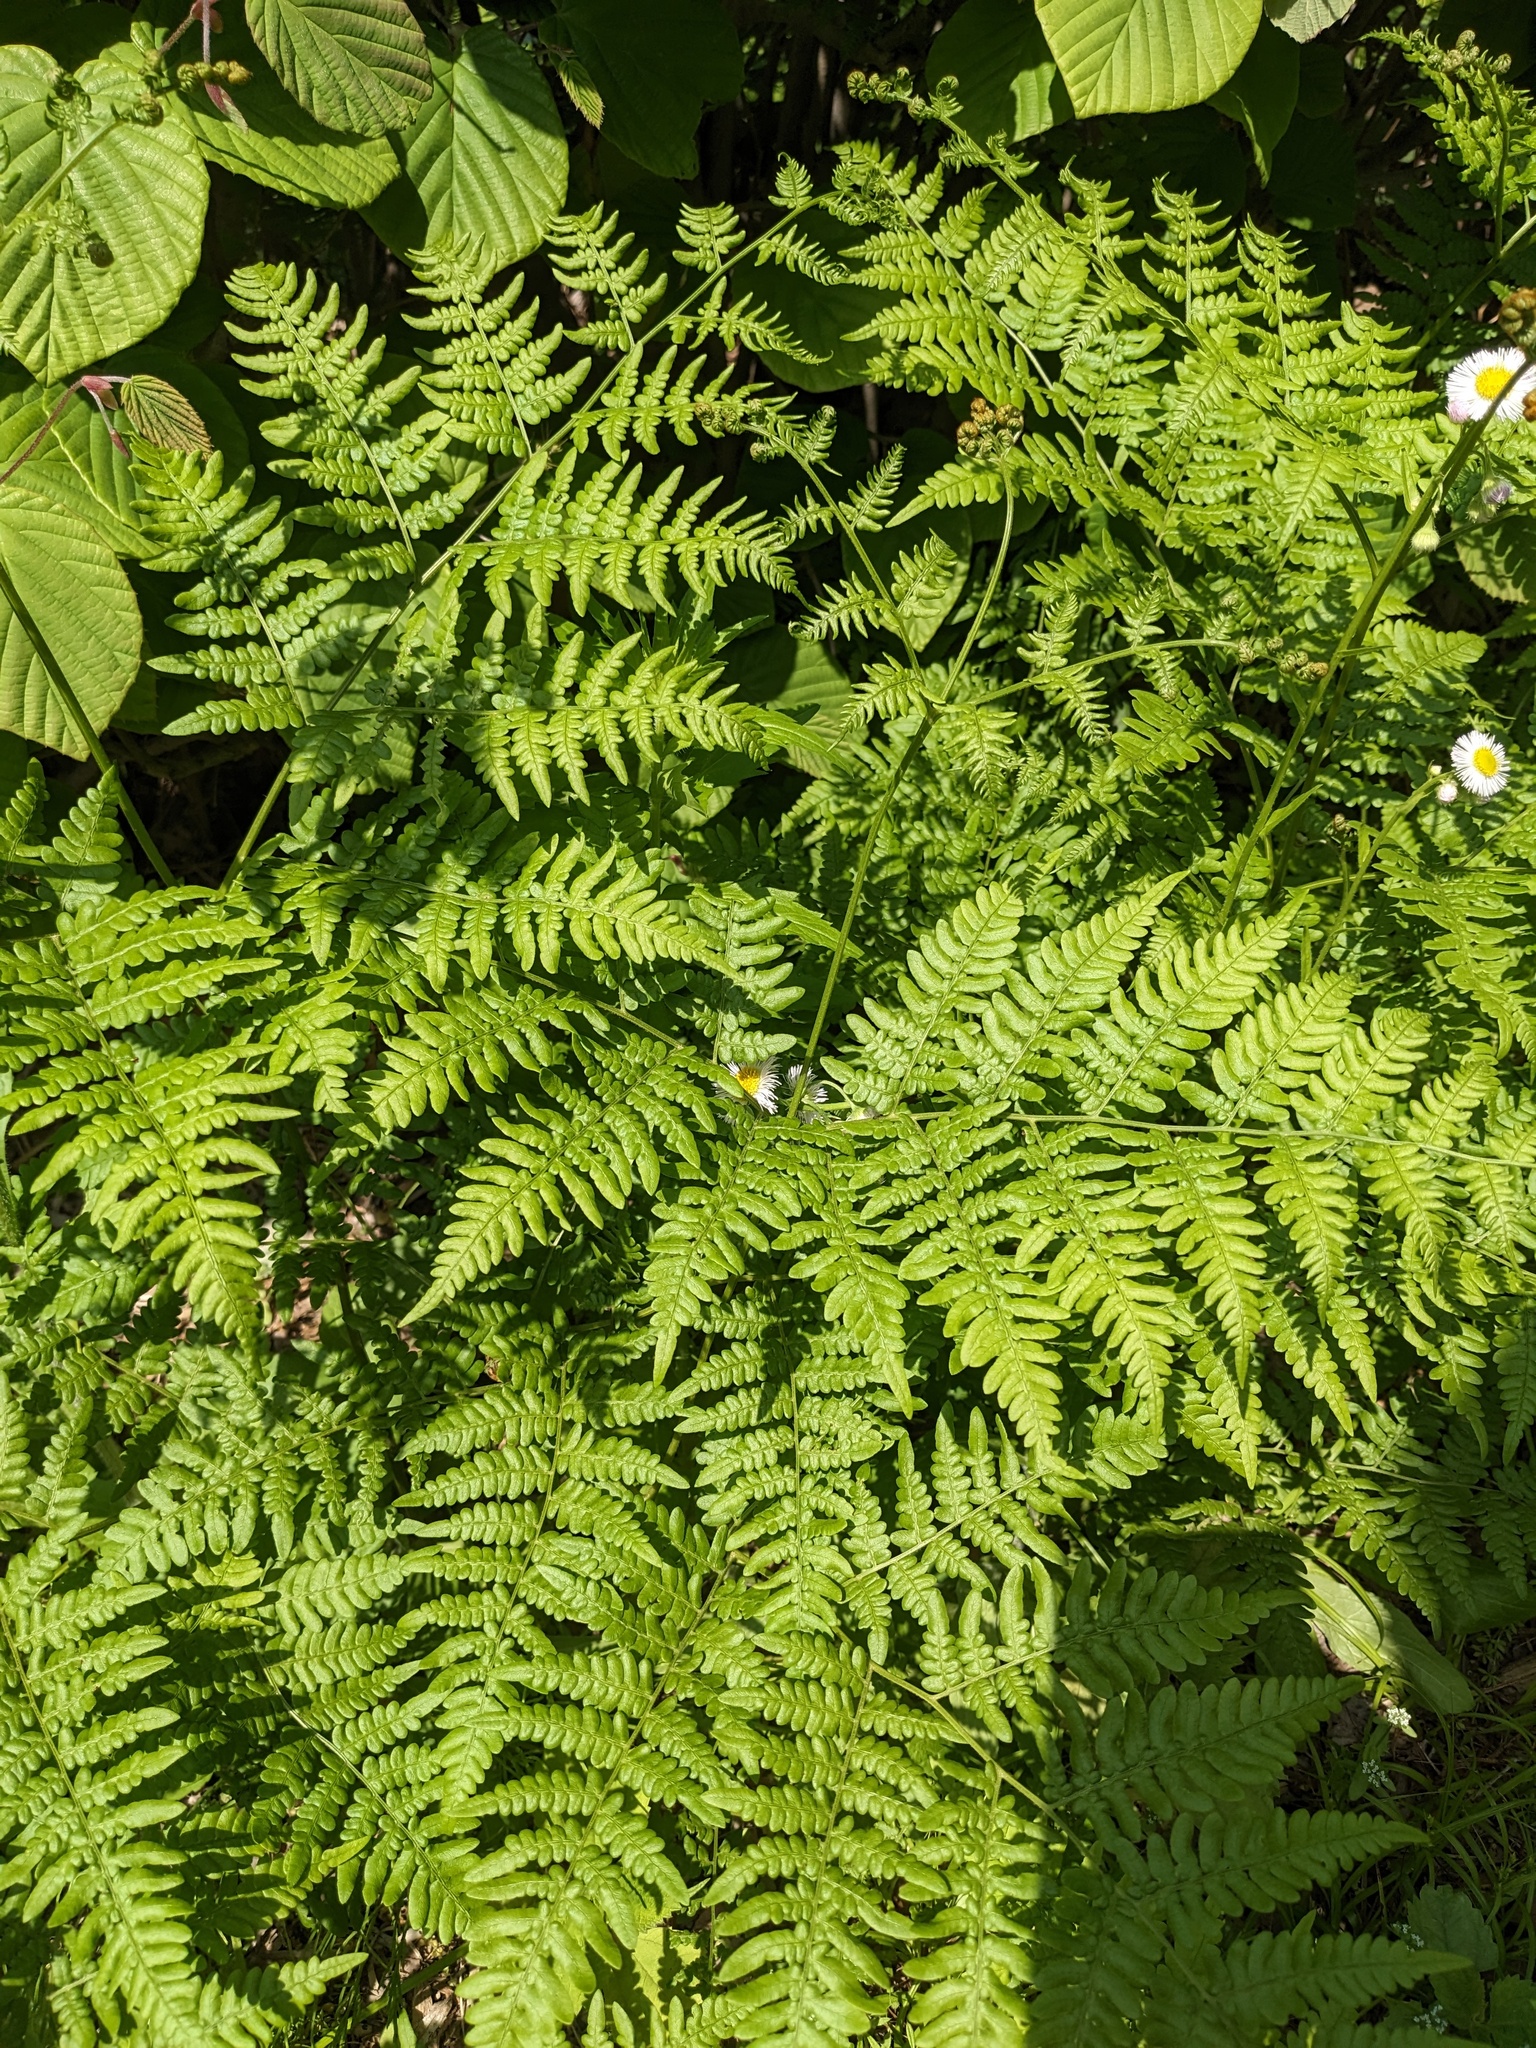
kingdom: Plantae
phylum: Tracheophyta
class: Polypodiopsida
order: Polypodiales
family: Dennstaedtiaceae
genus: Pteridium
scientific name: Pteridium aquilinum
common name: Bracken
